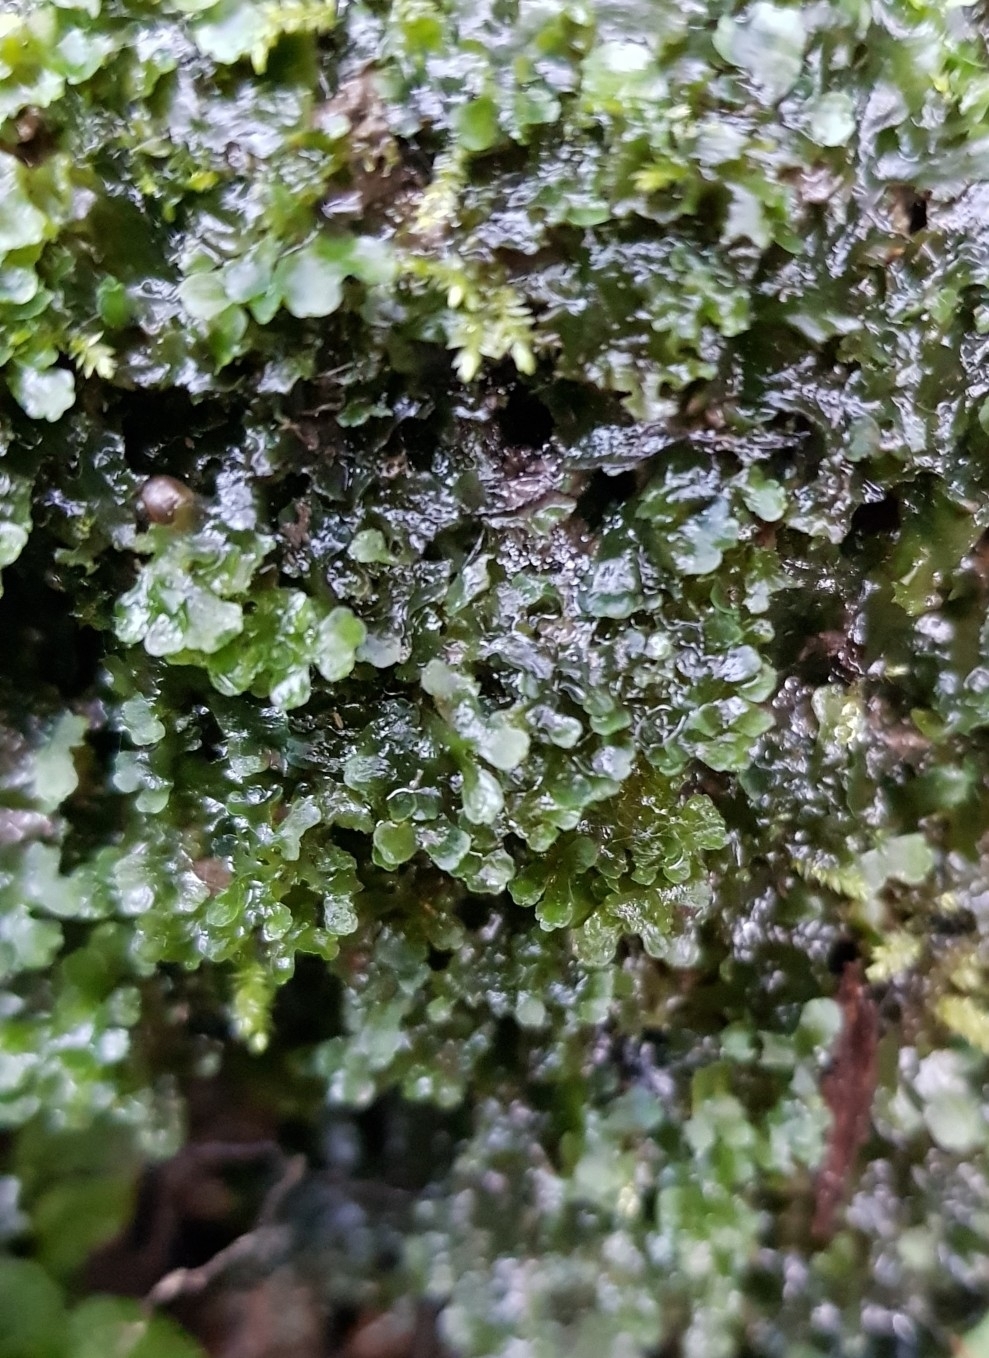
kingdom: Plantae
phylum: Marchantiophyta
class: Jungermanniopsida
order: Pelliales
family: Pelliaceae
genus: Apopellia
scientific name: Apopellia endiviifolia
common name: Endive pellia
